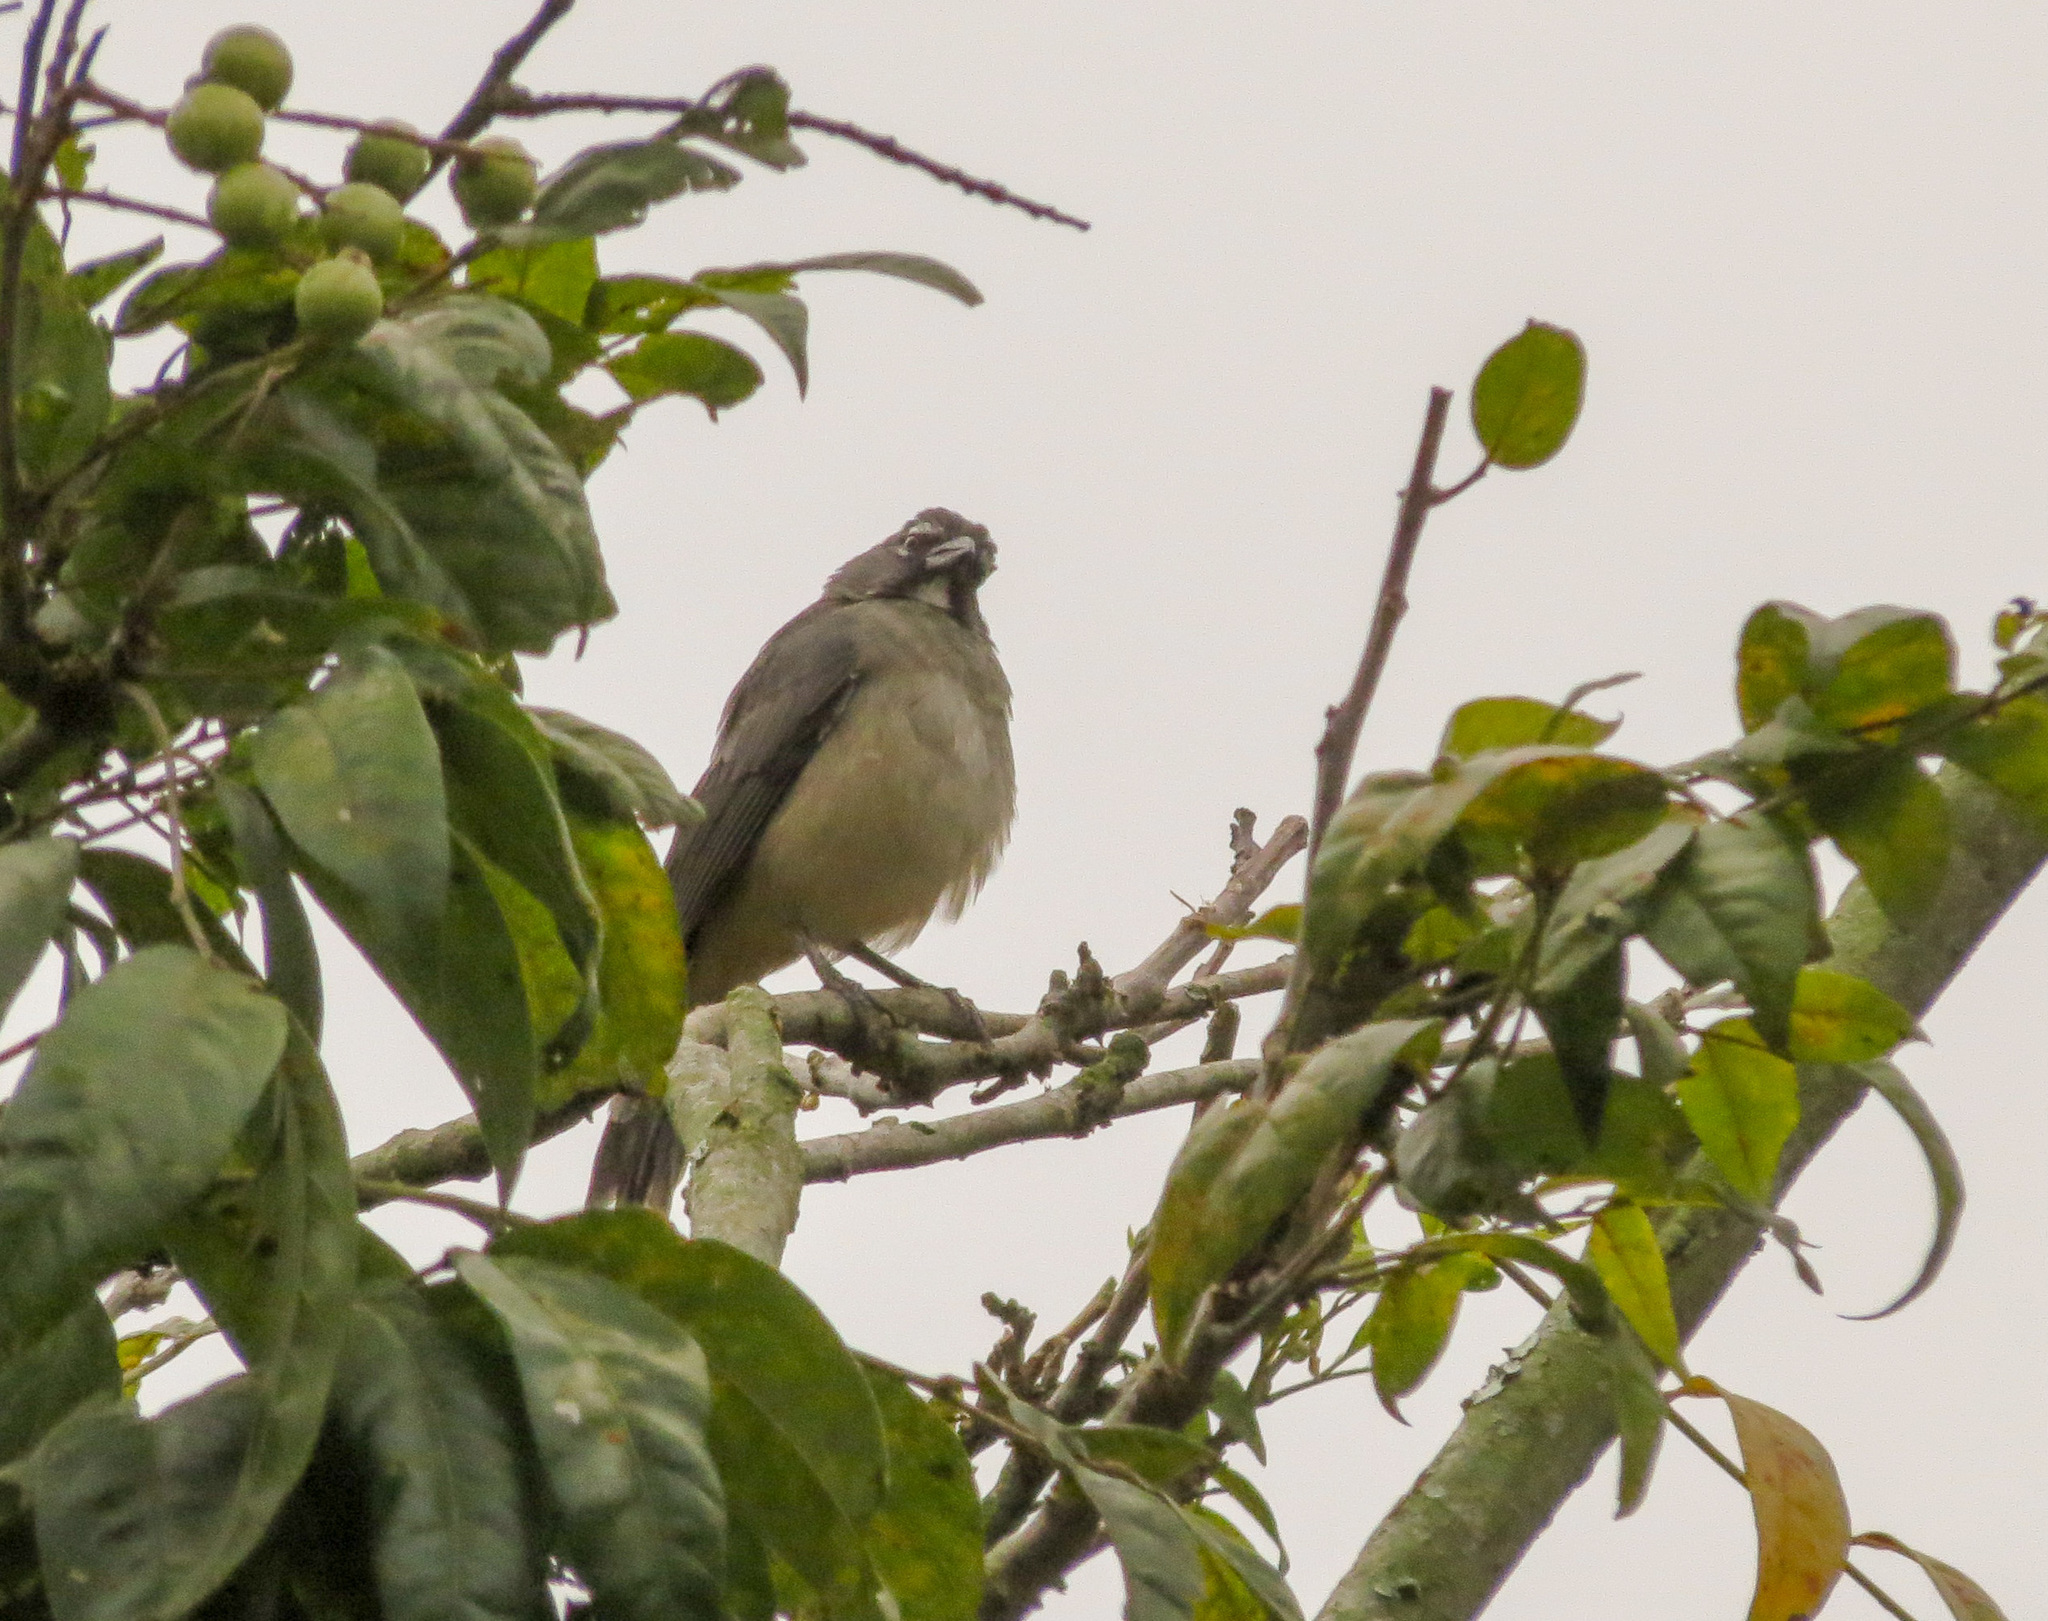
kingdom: Animalia
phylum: Chordata
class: Aves
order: Passeriformes
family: Thraupidae
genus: Saltator
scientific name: Saltator olivascens
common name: Caribbean grey saltator
